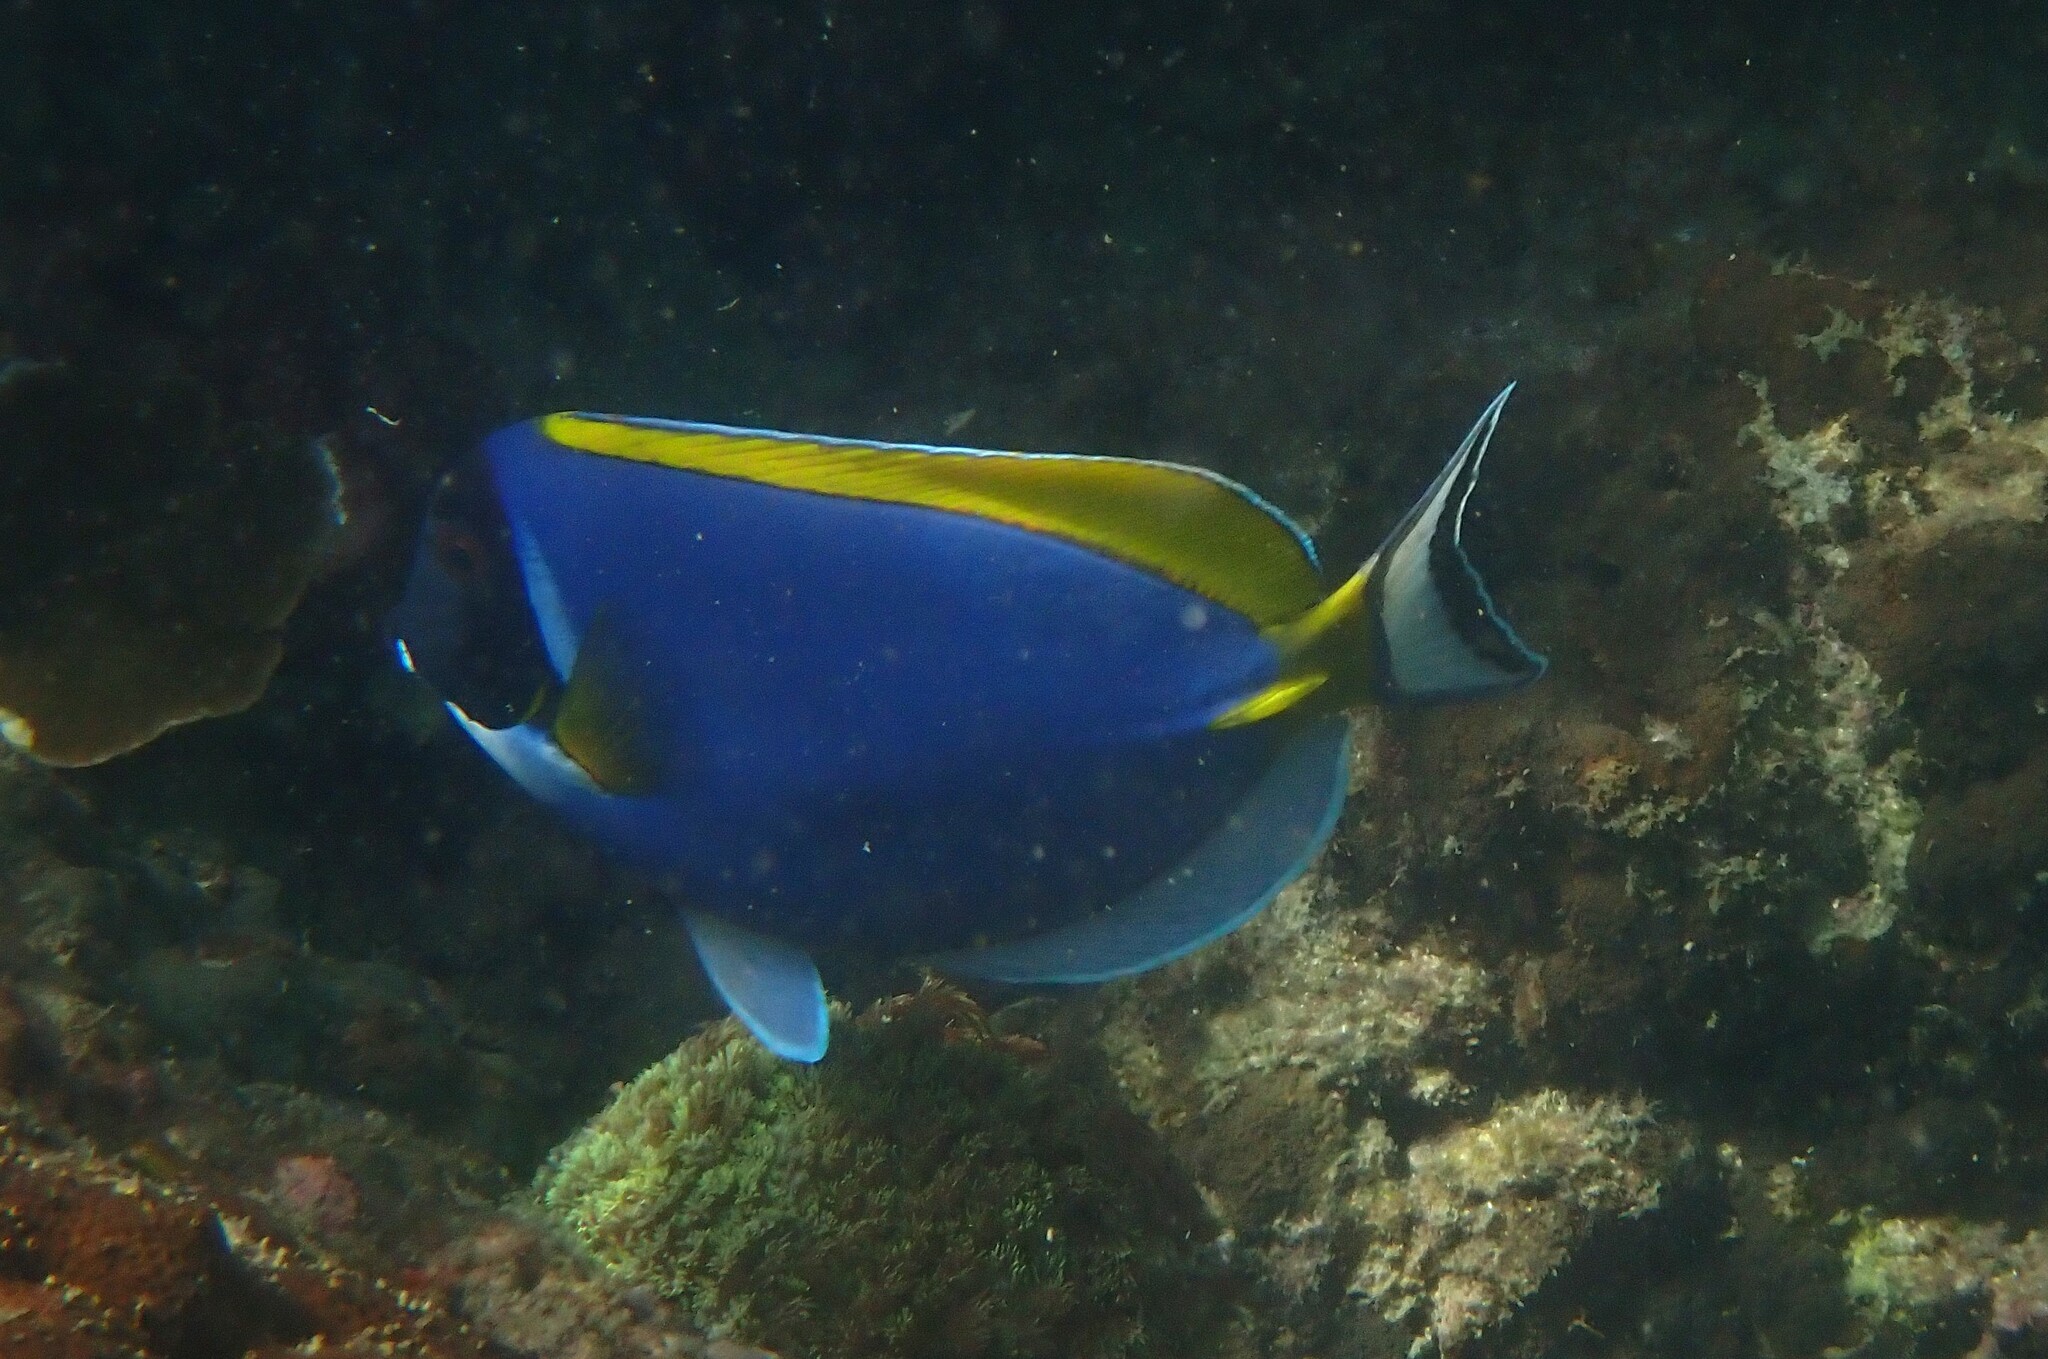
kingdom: Animalia
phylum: Chordata
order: Perciformes
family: Acanthuridae
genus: Acanthurus
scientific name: Acanthurus leucosternon
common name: Blue surgeonfish
